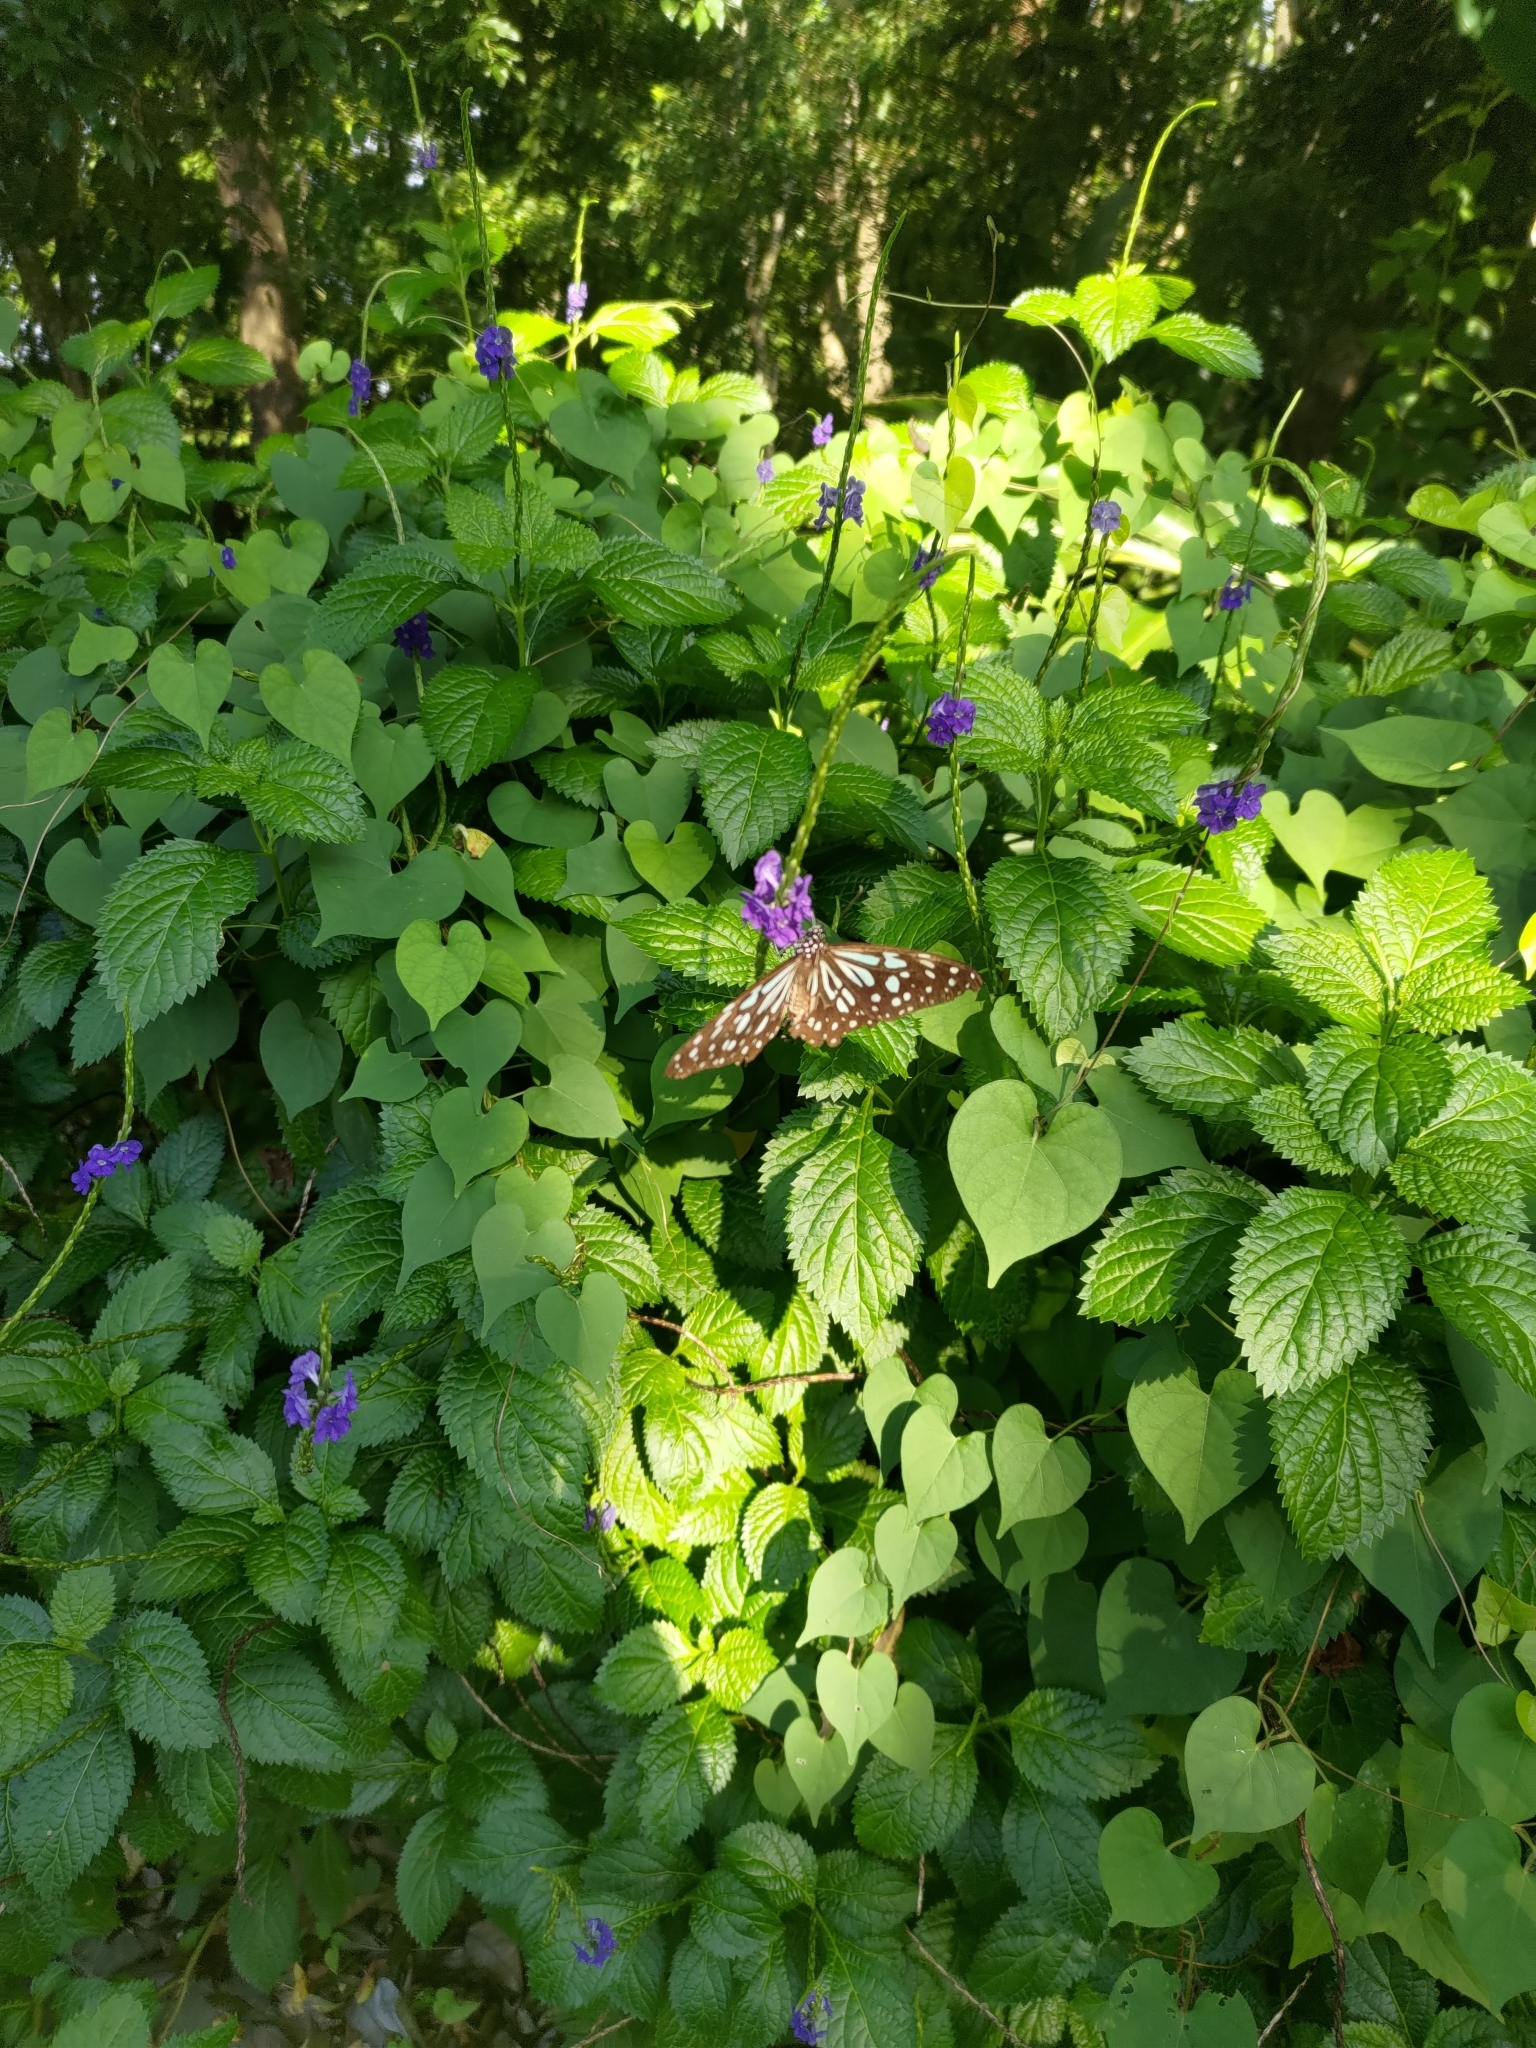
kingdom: Animalia
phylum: Arthropoda
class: Insecta
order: Lepidoptera
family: Nymphalidae
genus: Tirumala
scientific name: Tirumala limniace
